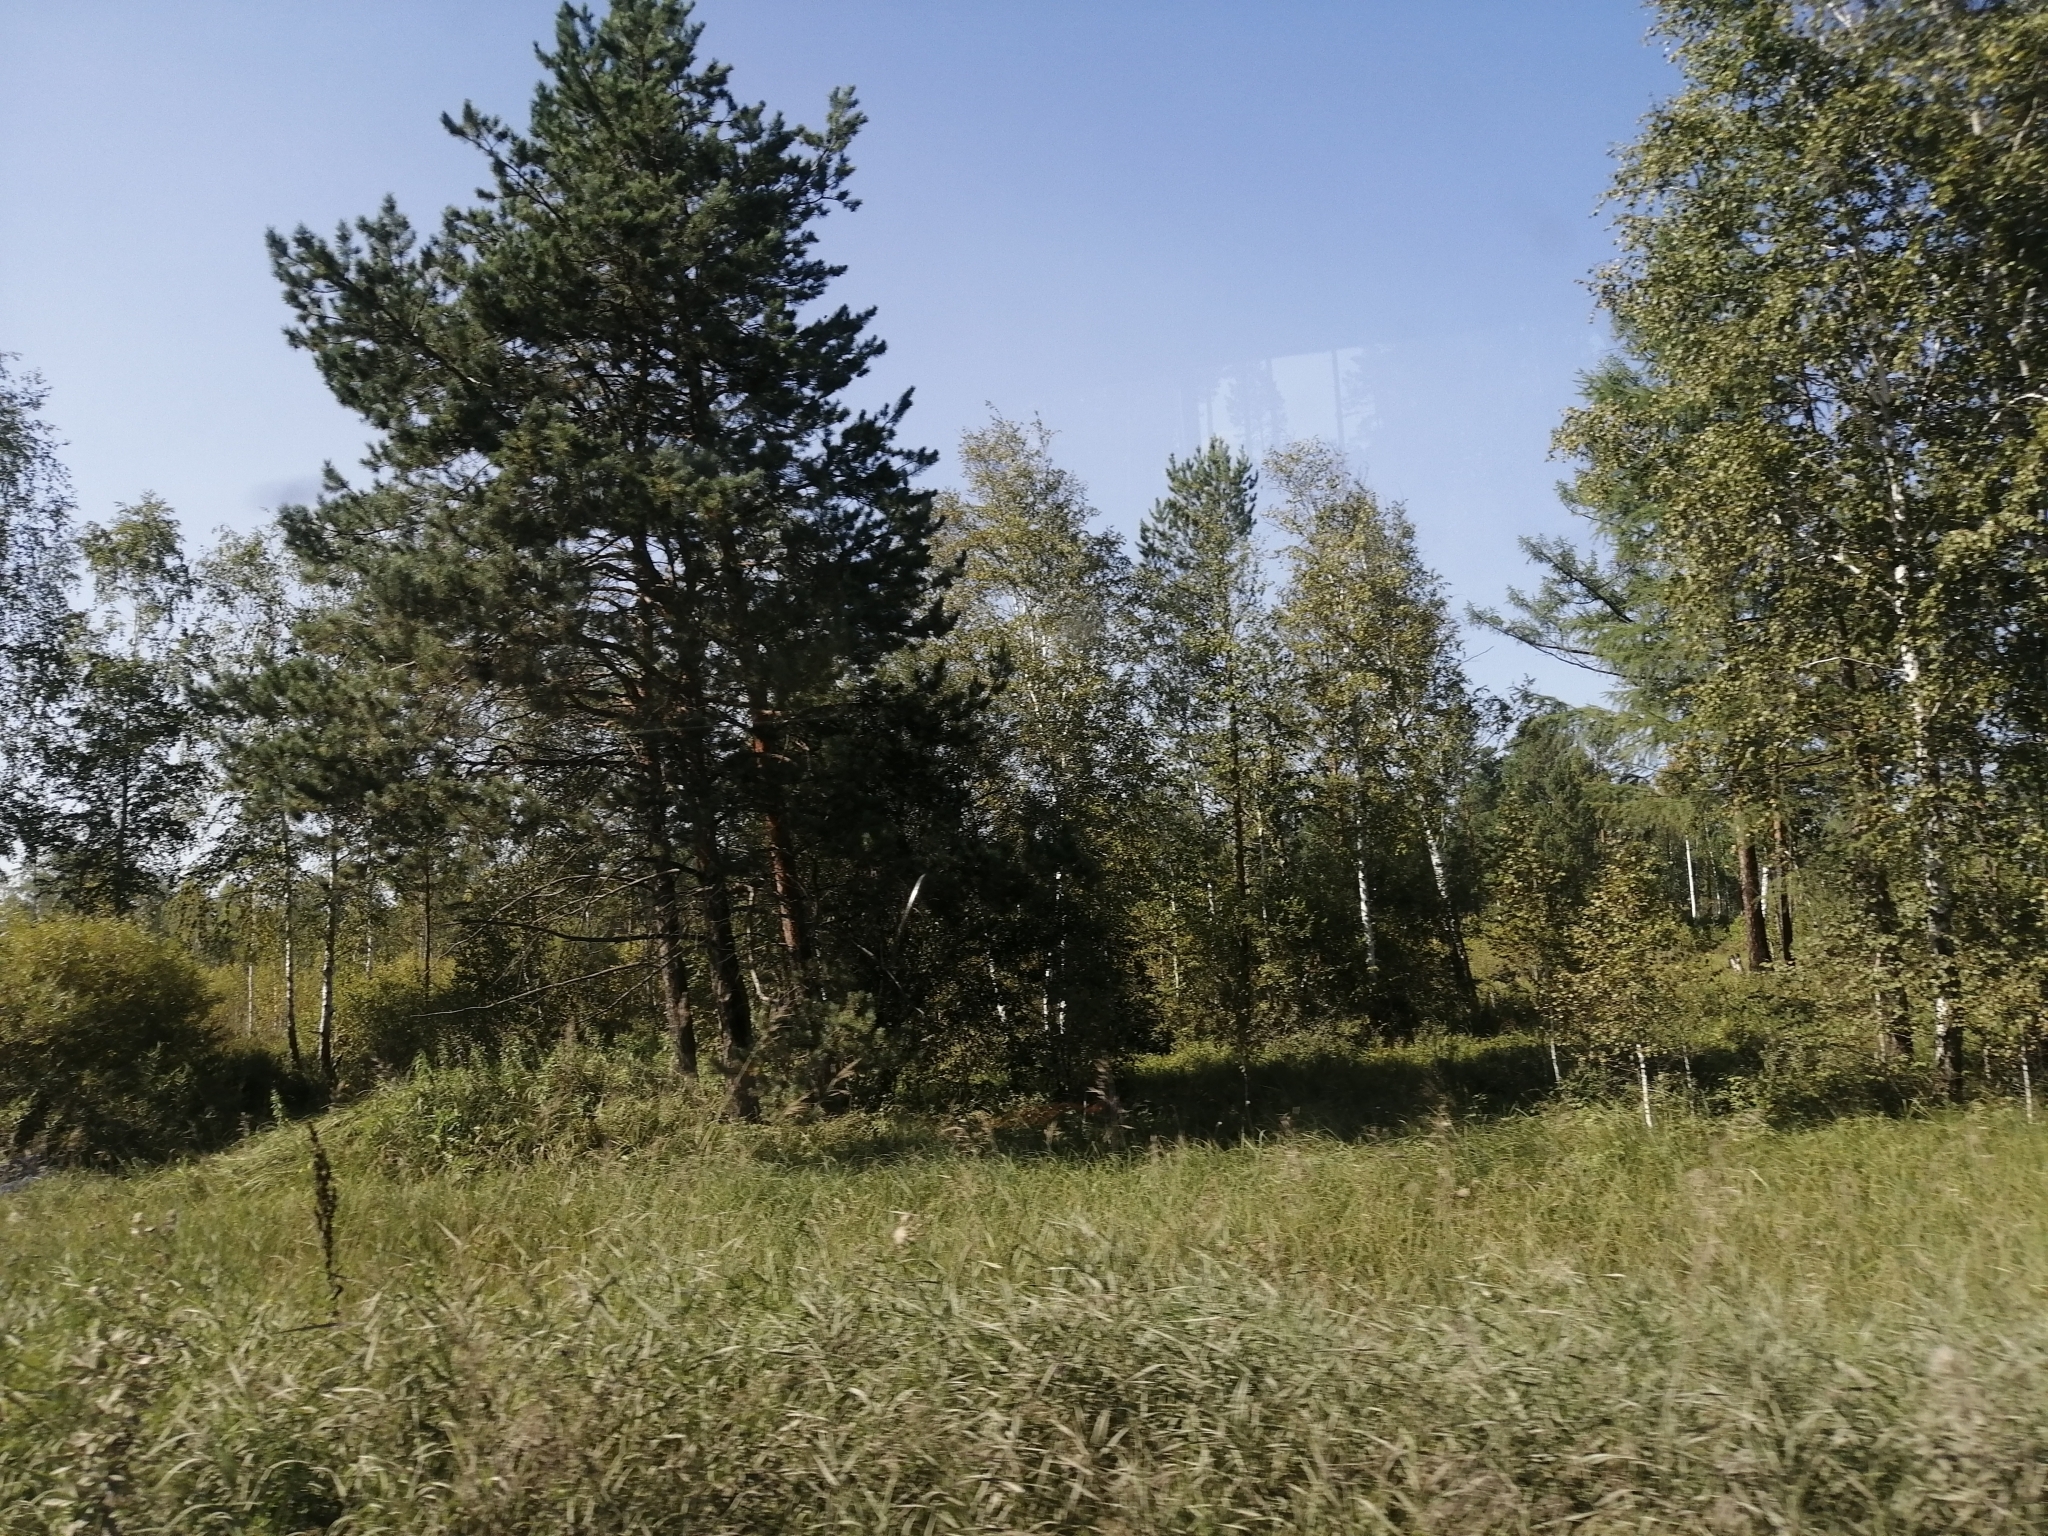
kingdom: Plantae
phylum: Tracheophyta
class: Pinopsida
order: Pinales
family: Pinaceae
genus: Pinus
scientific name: Pinus sylvestris
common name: Scots pine
